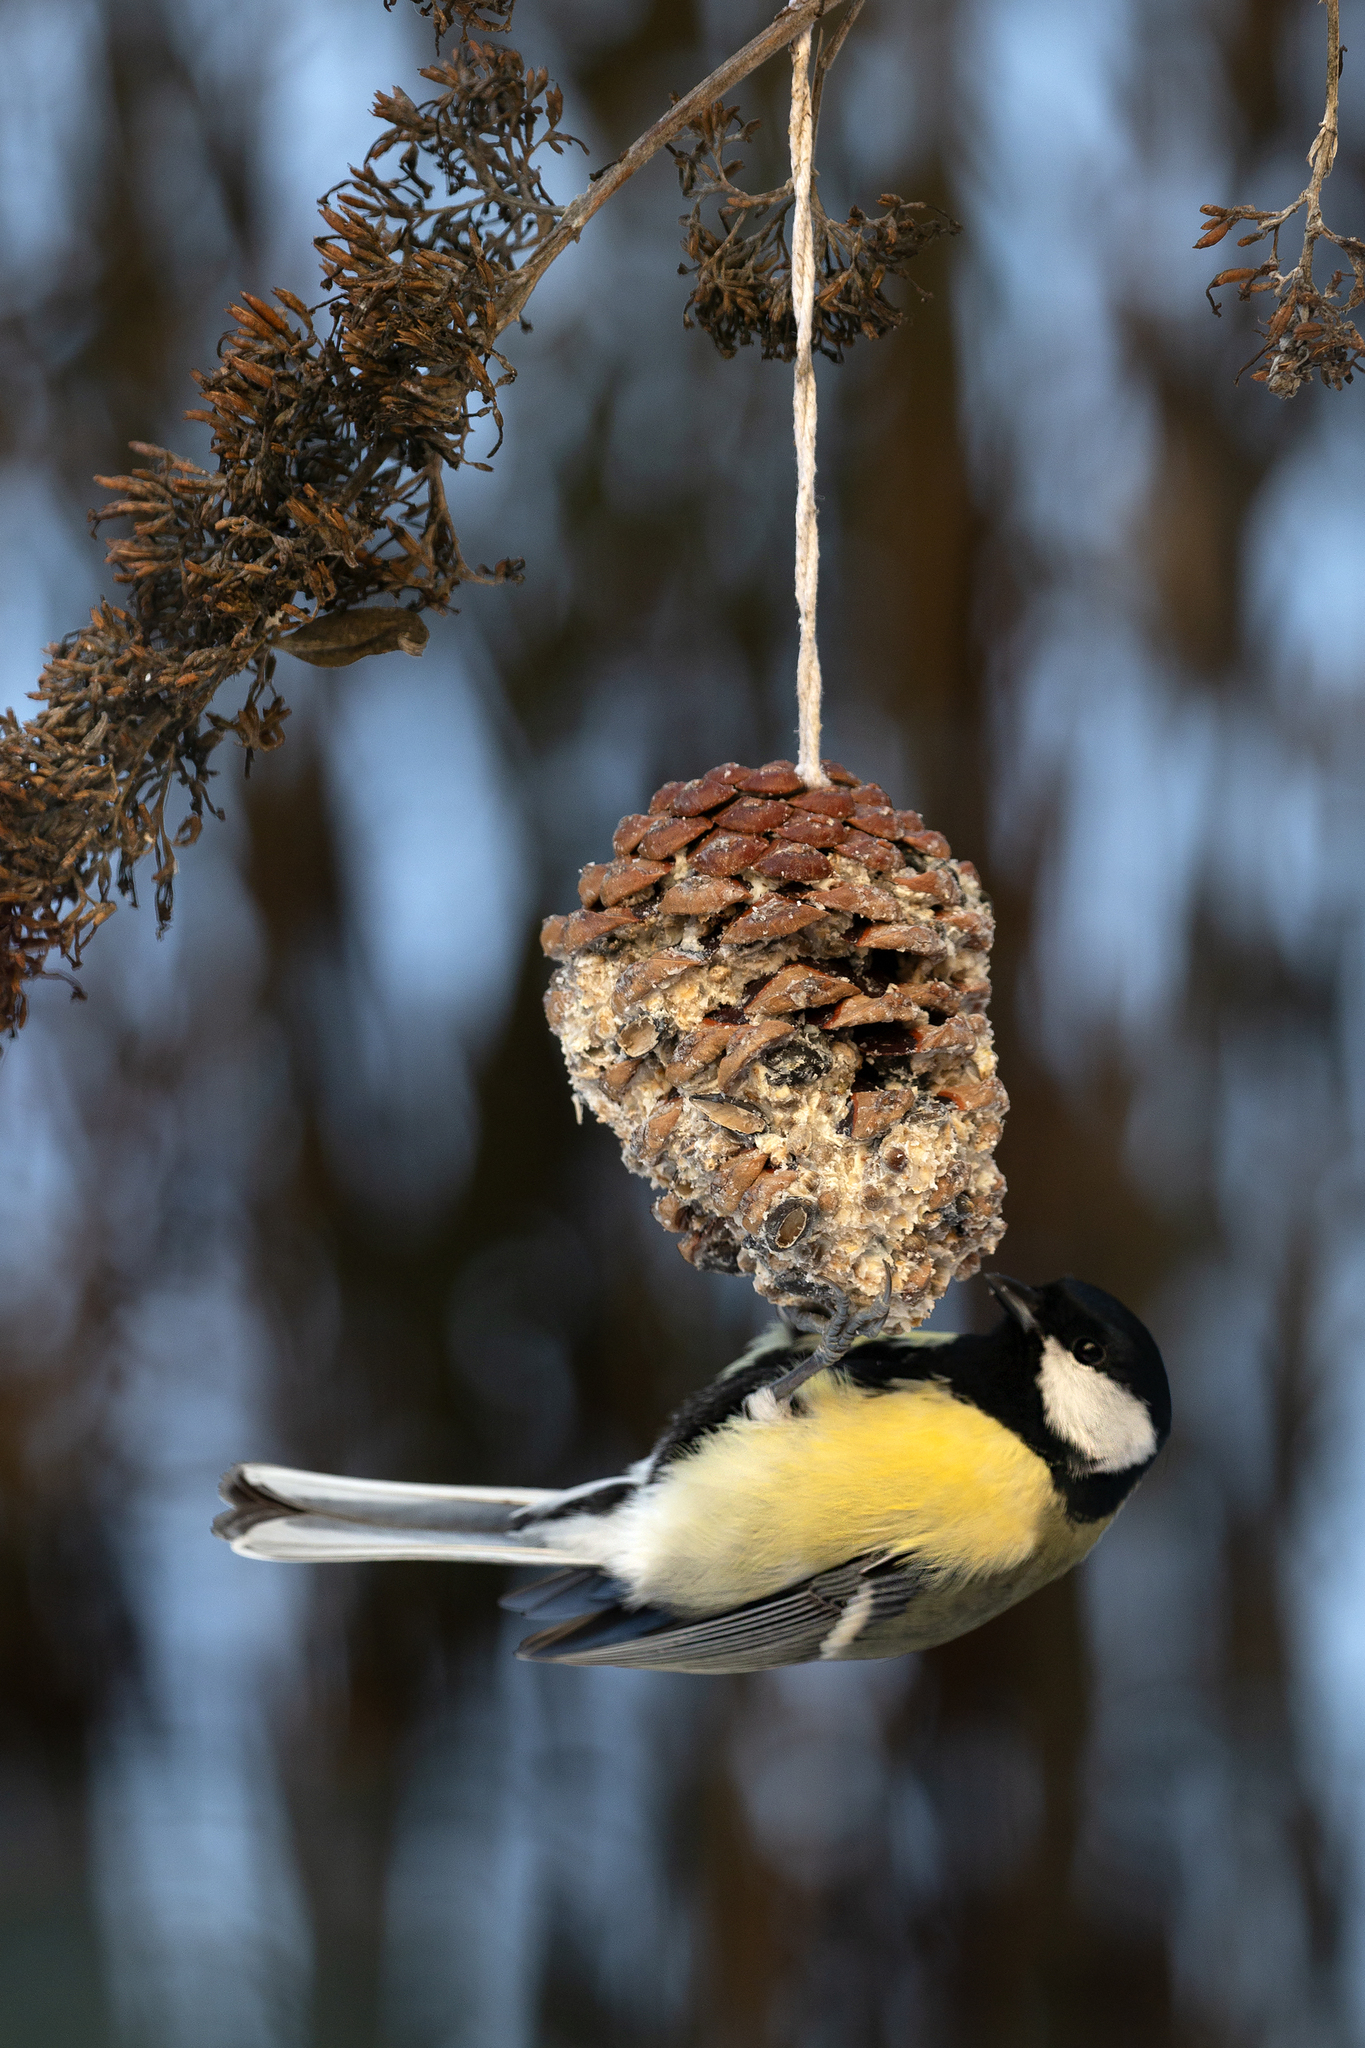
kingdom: Animalia
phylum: Chordata
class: Aves
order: Passeriformes
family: Paridae
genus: Parus
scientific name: Parus major
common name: Great tit
